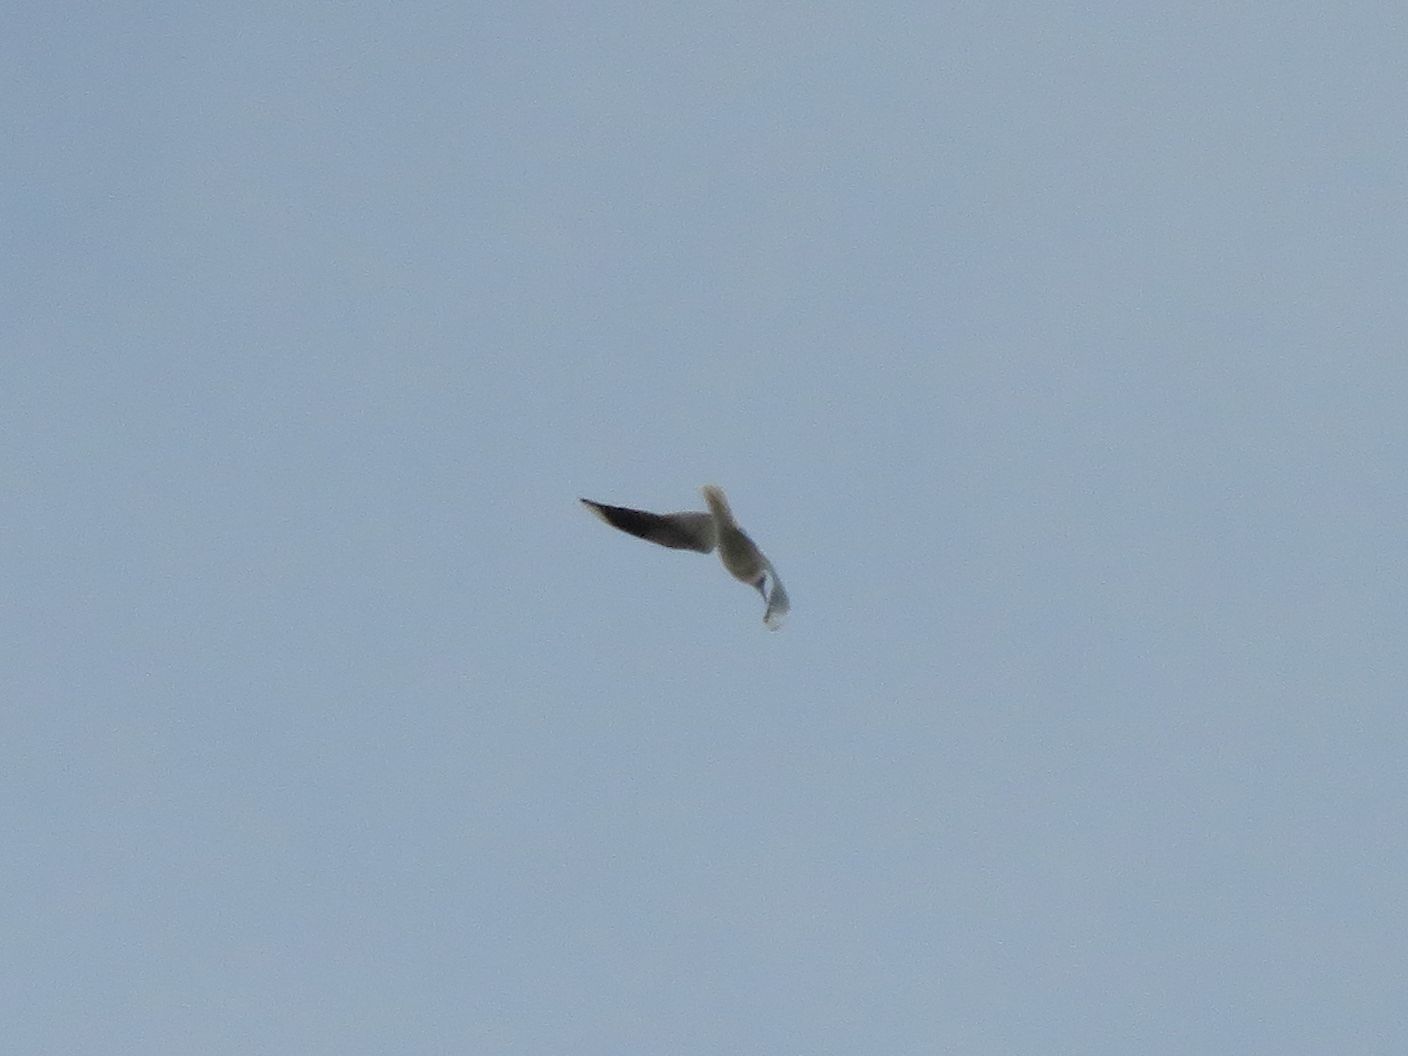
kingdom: Animalia
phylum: Chordata
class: Aves
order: Charadriiformes
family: Laridae
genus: Chroicocephalus
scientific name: Chroicocephalus maculipennis
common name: Brown-hooded gull
